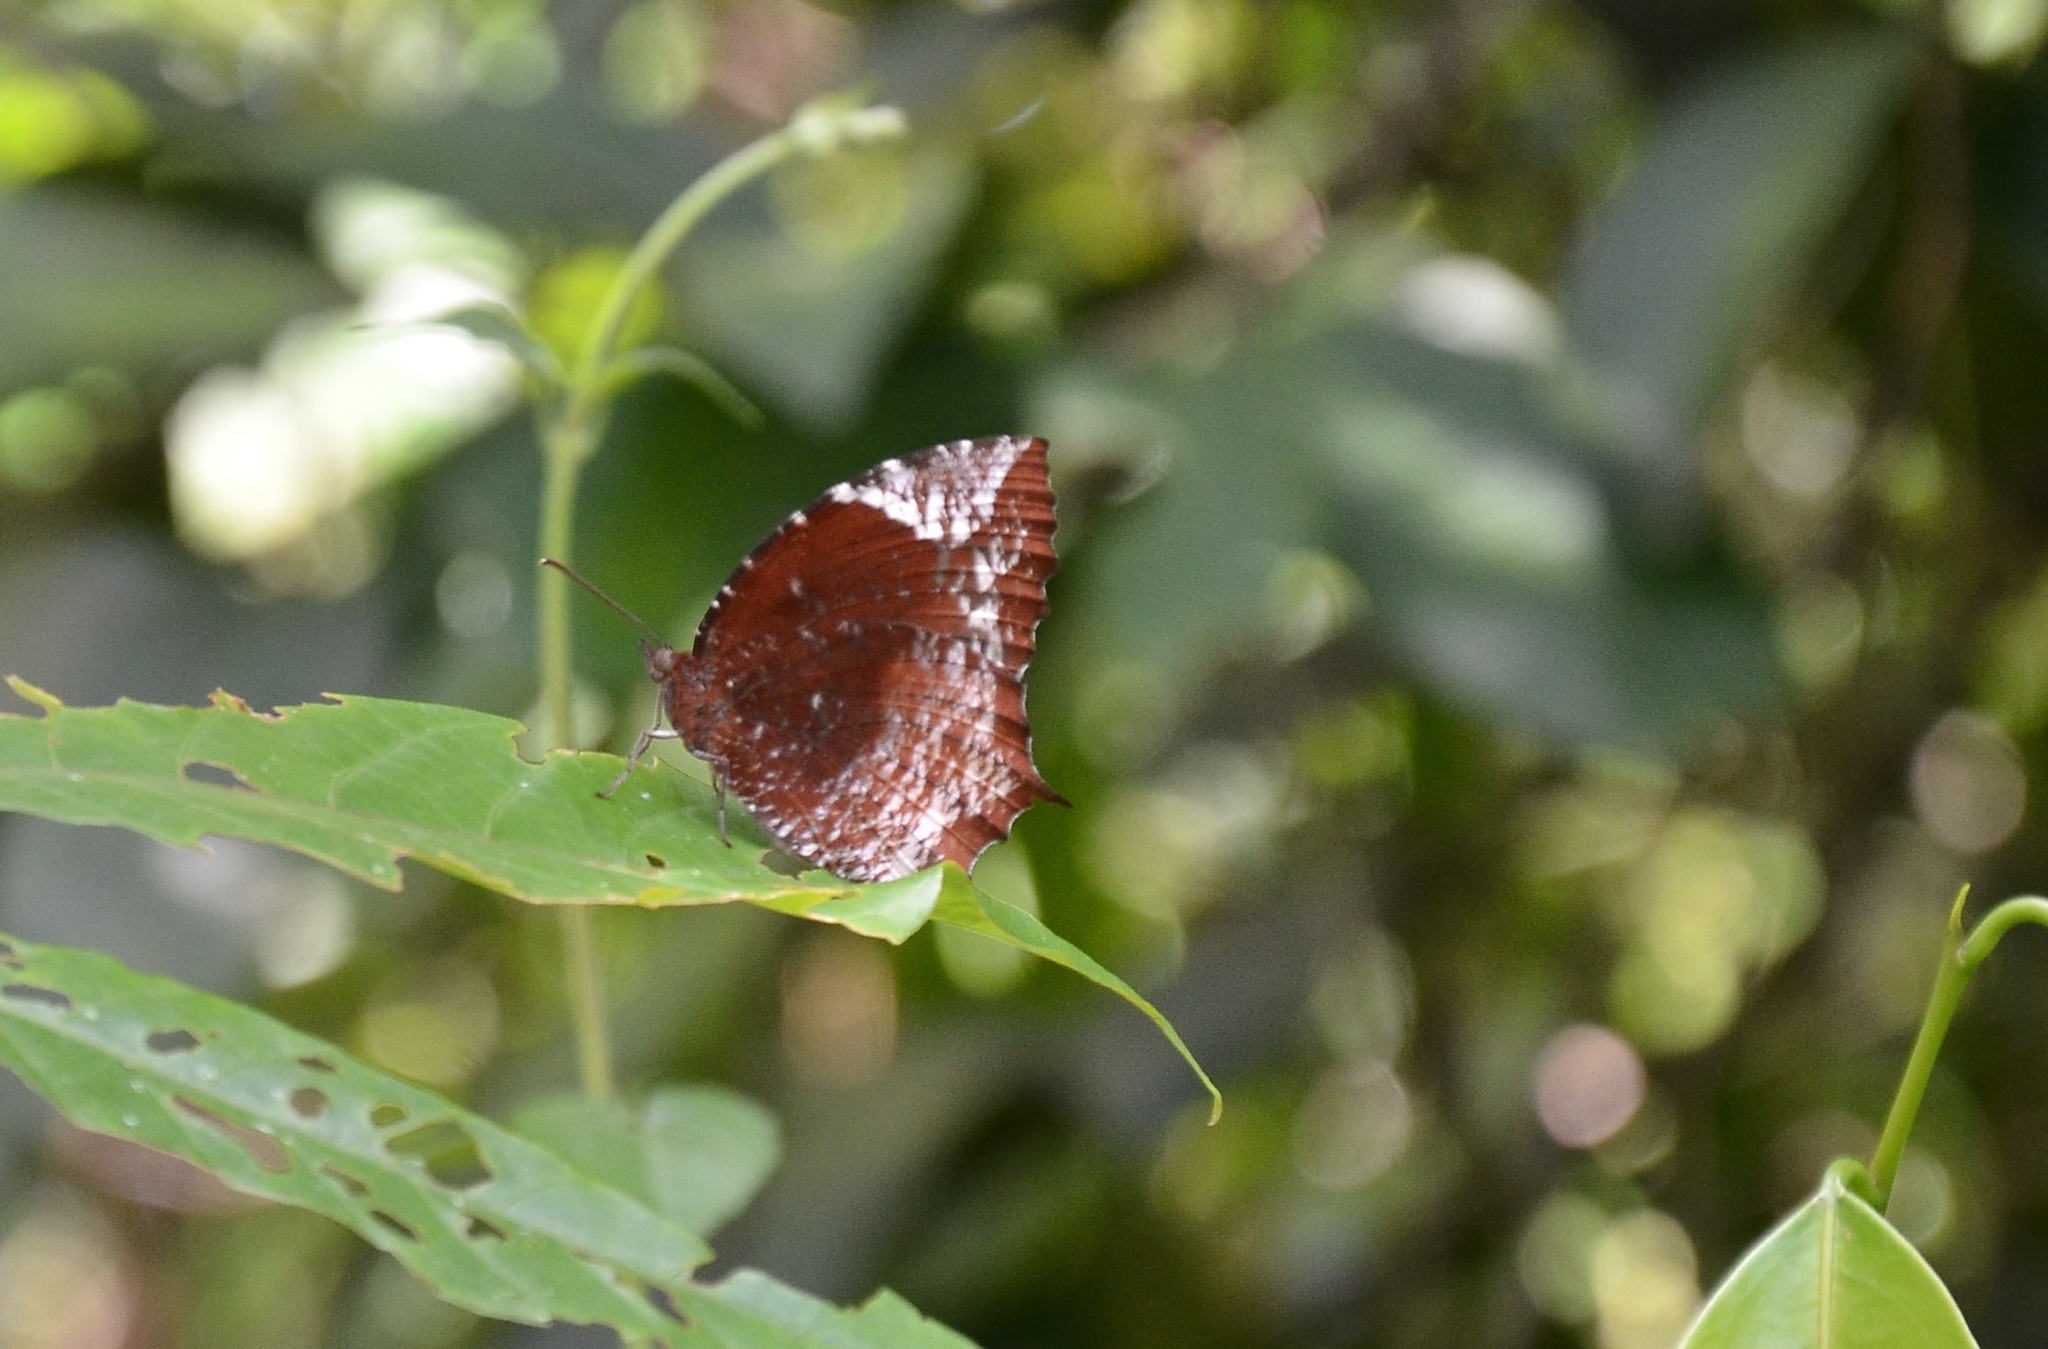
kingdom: Animalia
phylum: Arthropoda
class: Insecta
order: Lepidoptera
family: Nymphalidae
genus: Elymnias
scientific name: Elymnias caudata
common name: Tailed palmfly
